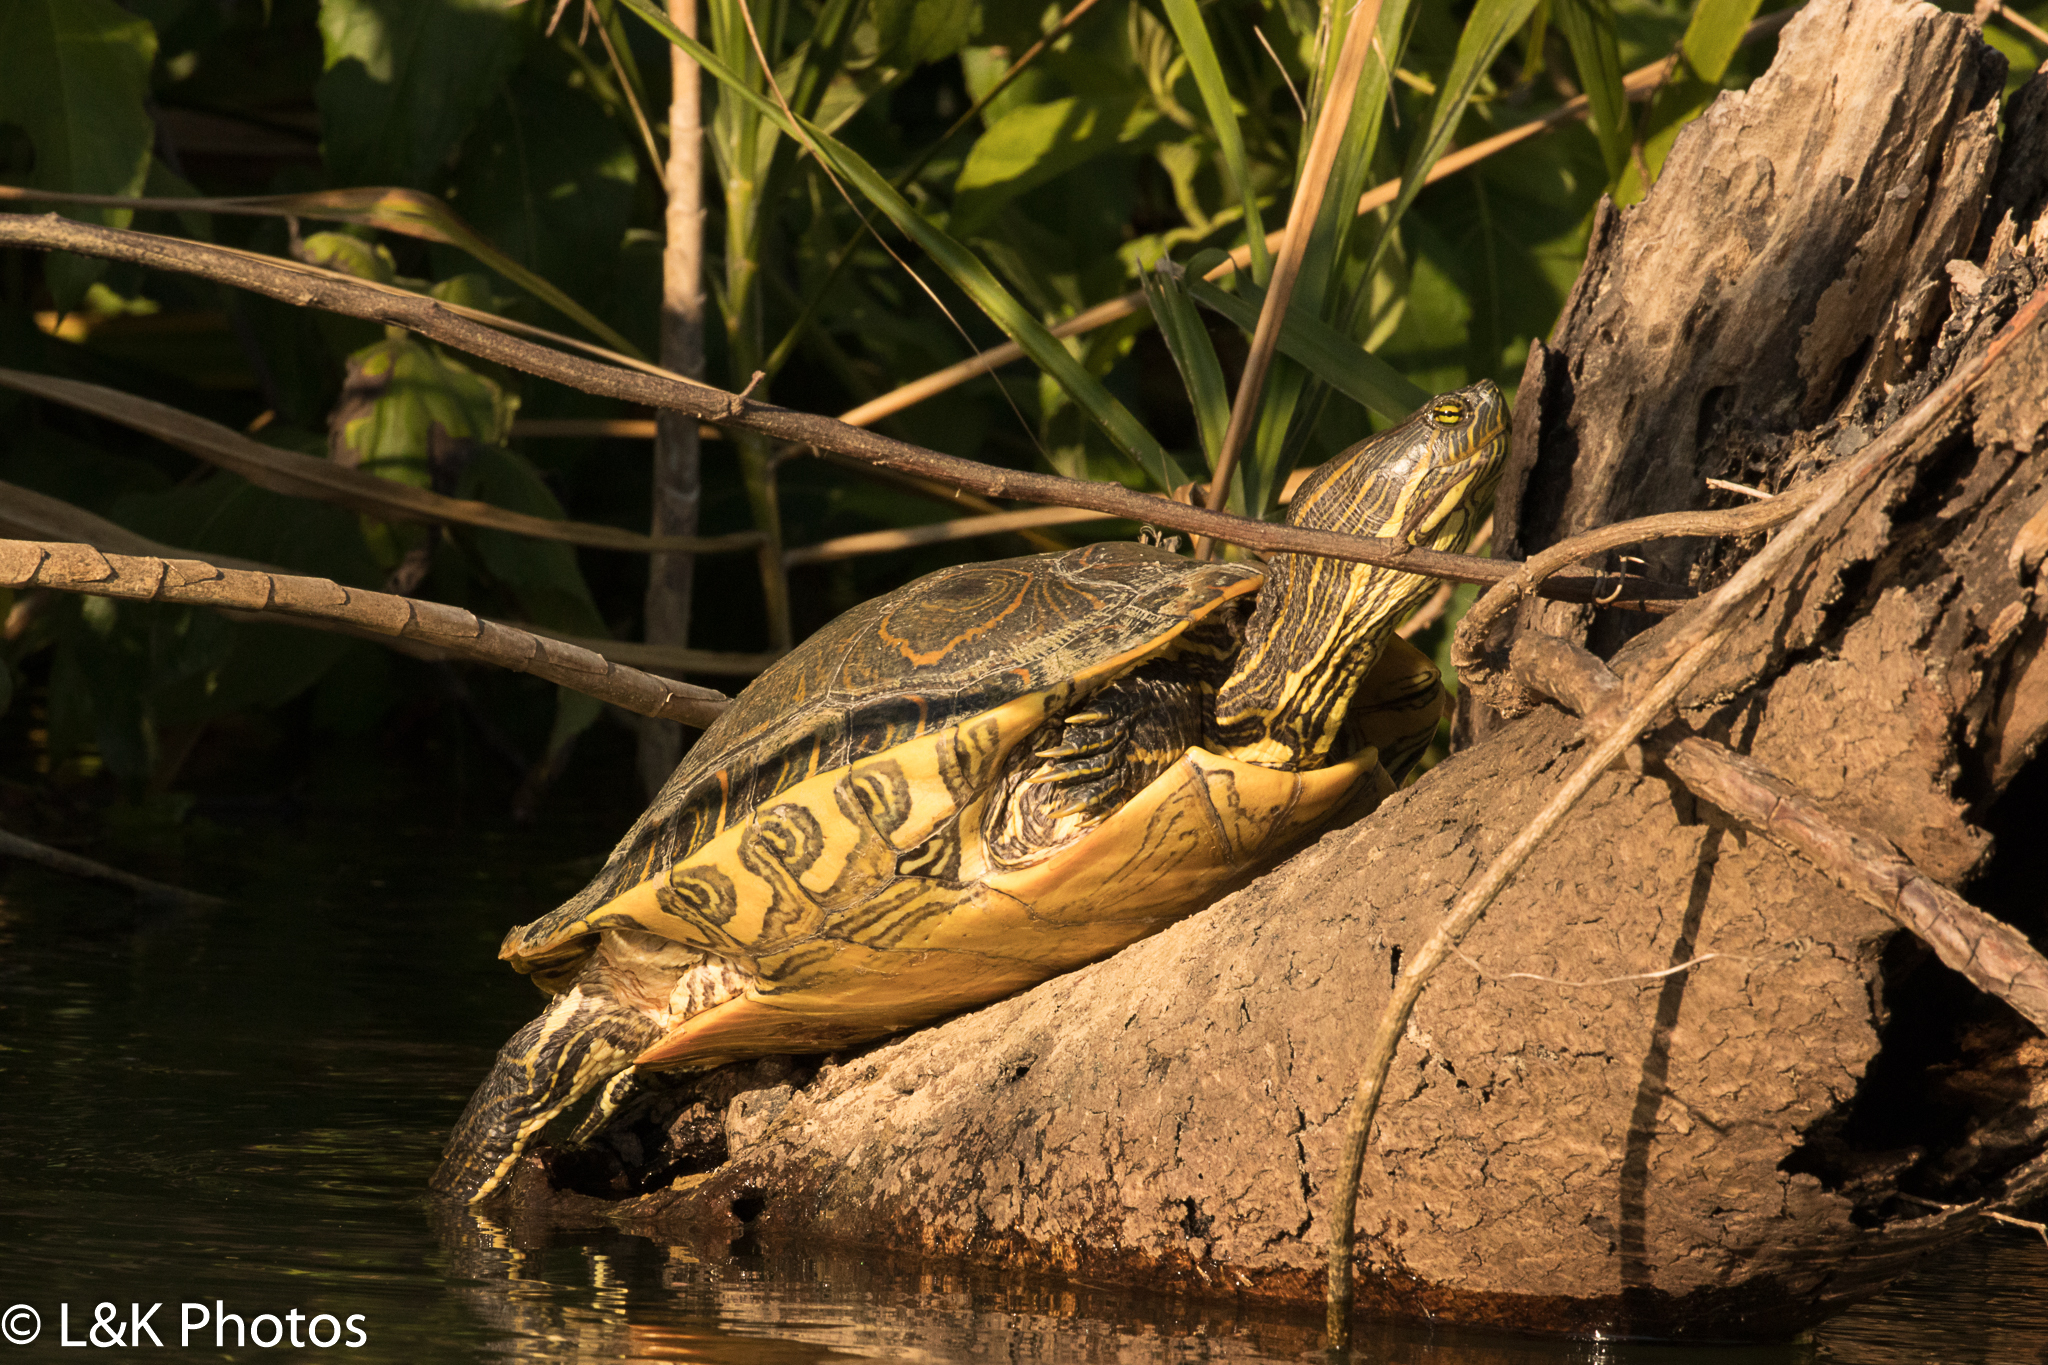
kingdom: Animalia
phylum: Chordata
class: Testudines
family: Emydidae
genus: Trachemys
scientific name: Trachemys venusta
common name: Mesoamerican slider
